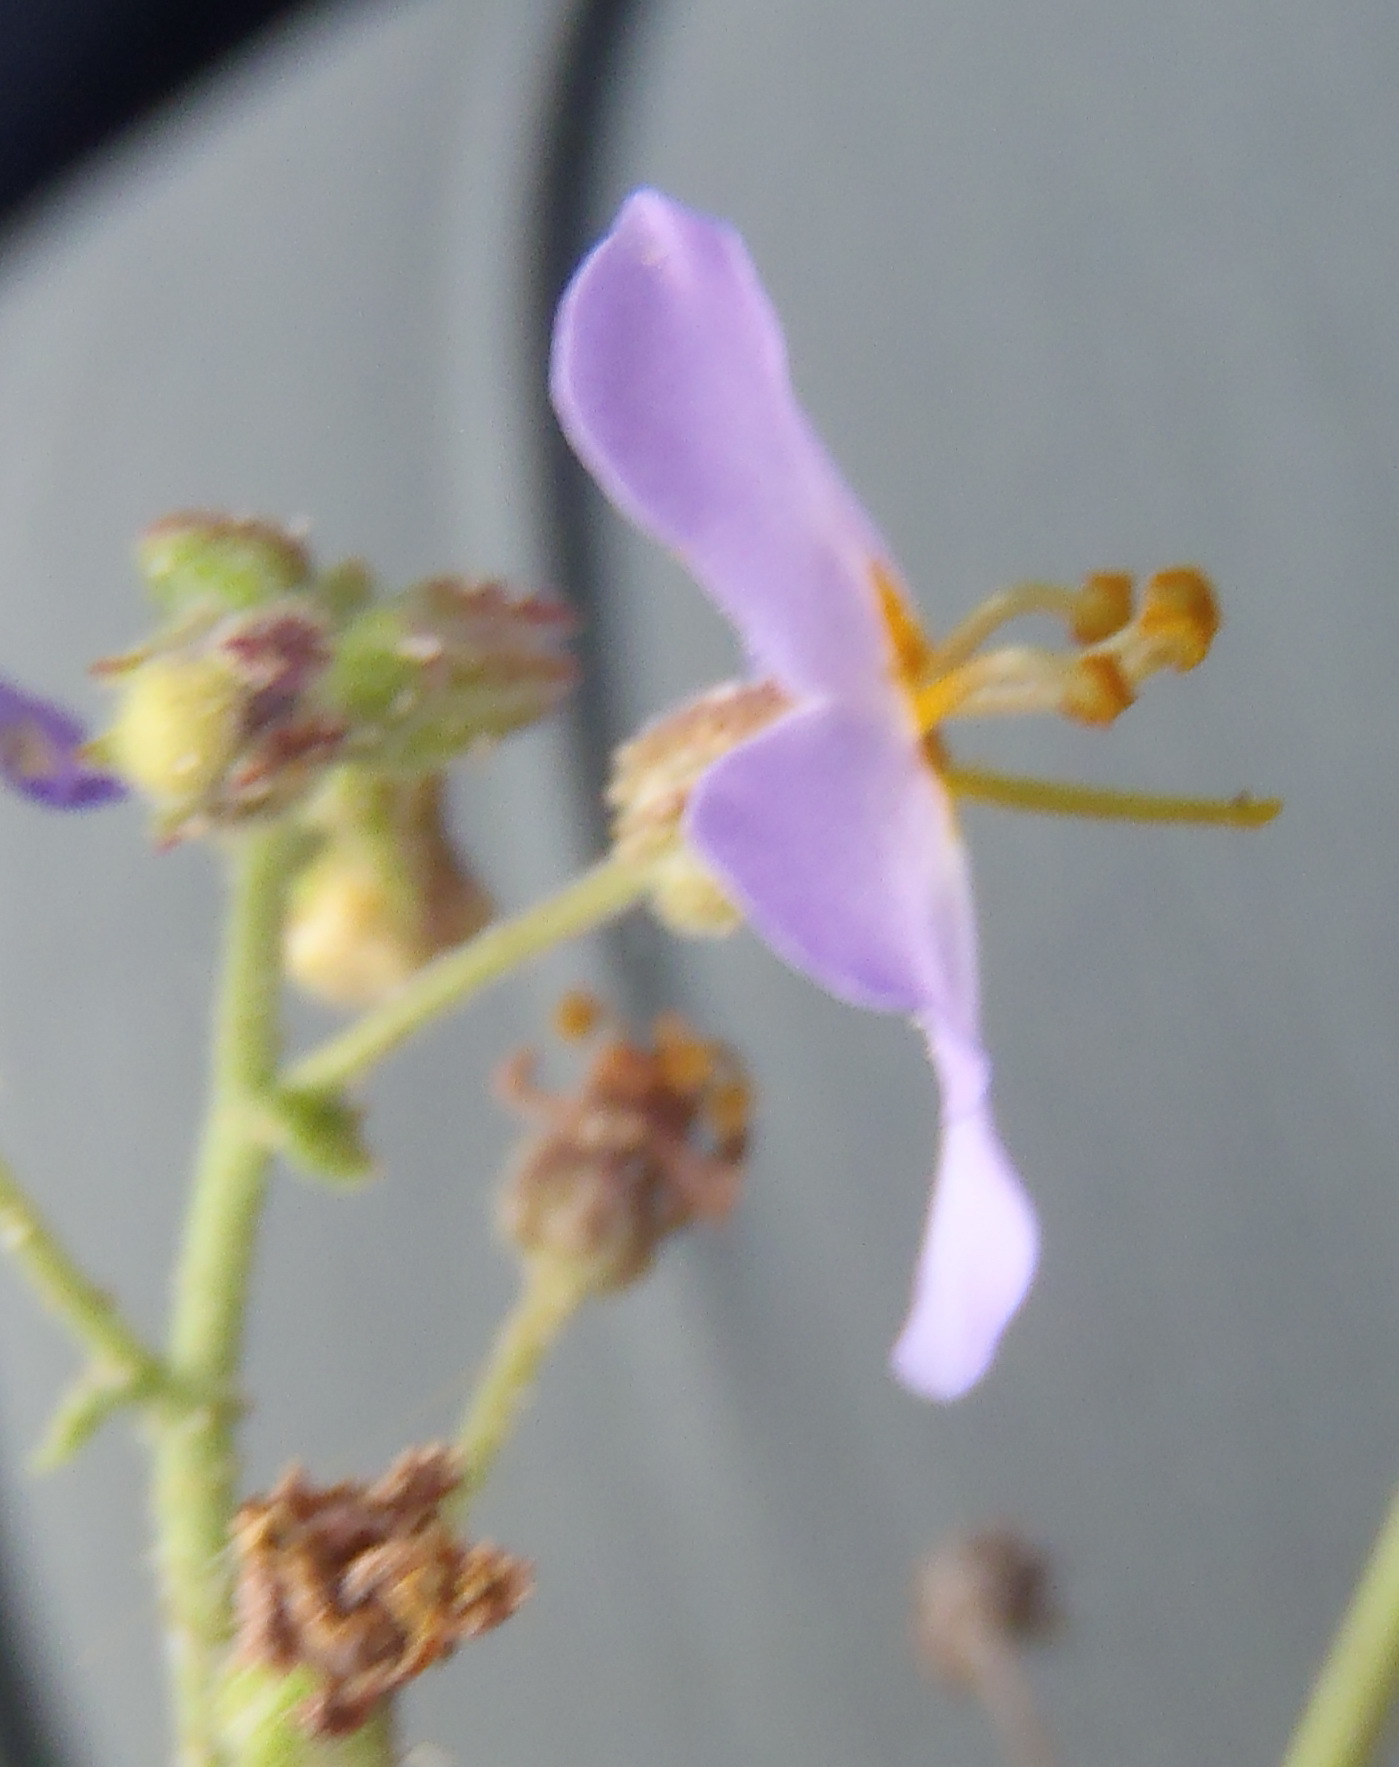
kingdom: Plantae
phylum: Tracheophyta
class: Magnoliopsida
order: Lamiales
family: Scrophulariaceae
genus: Chaenostoma
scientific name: Chaenostoma caeruleum
